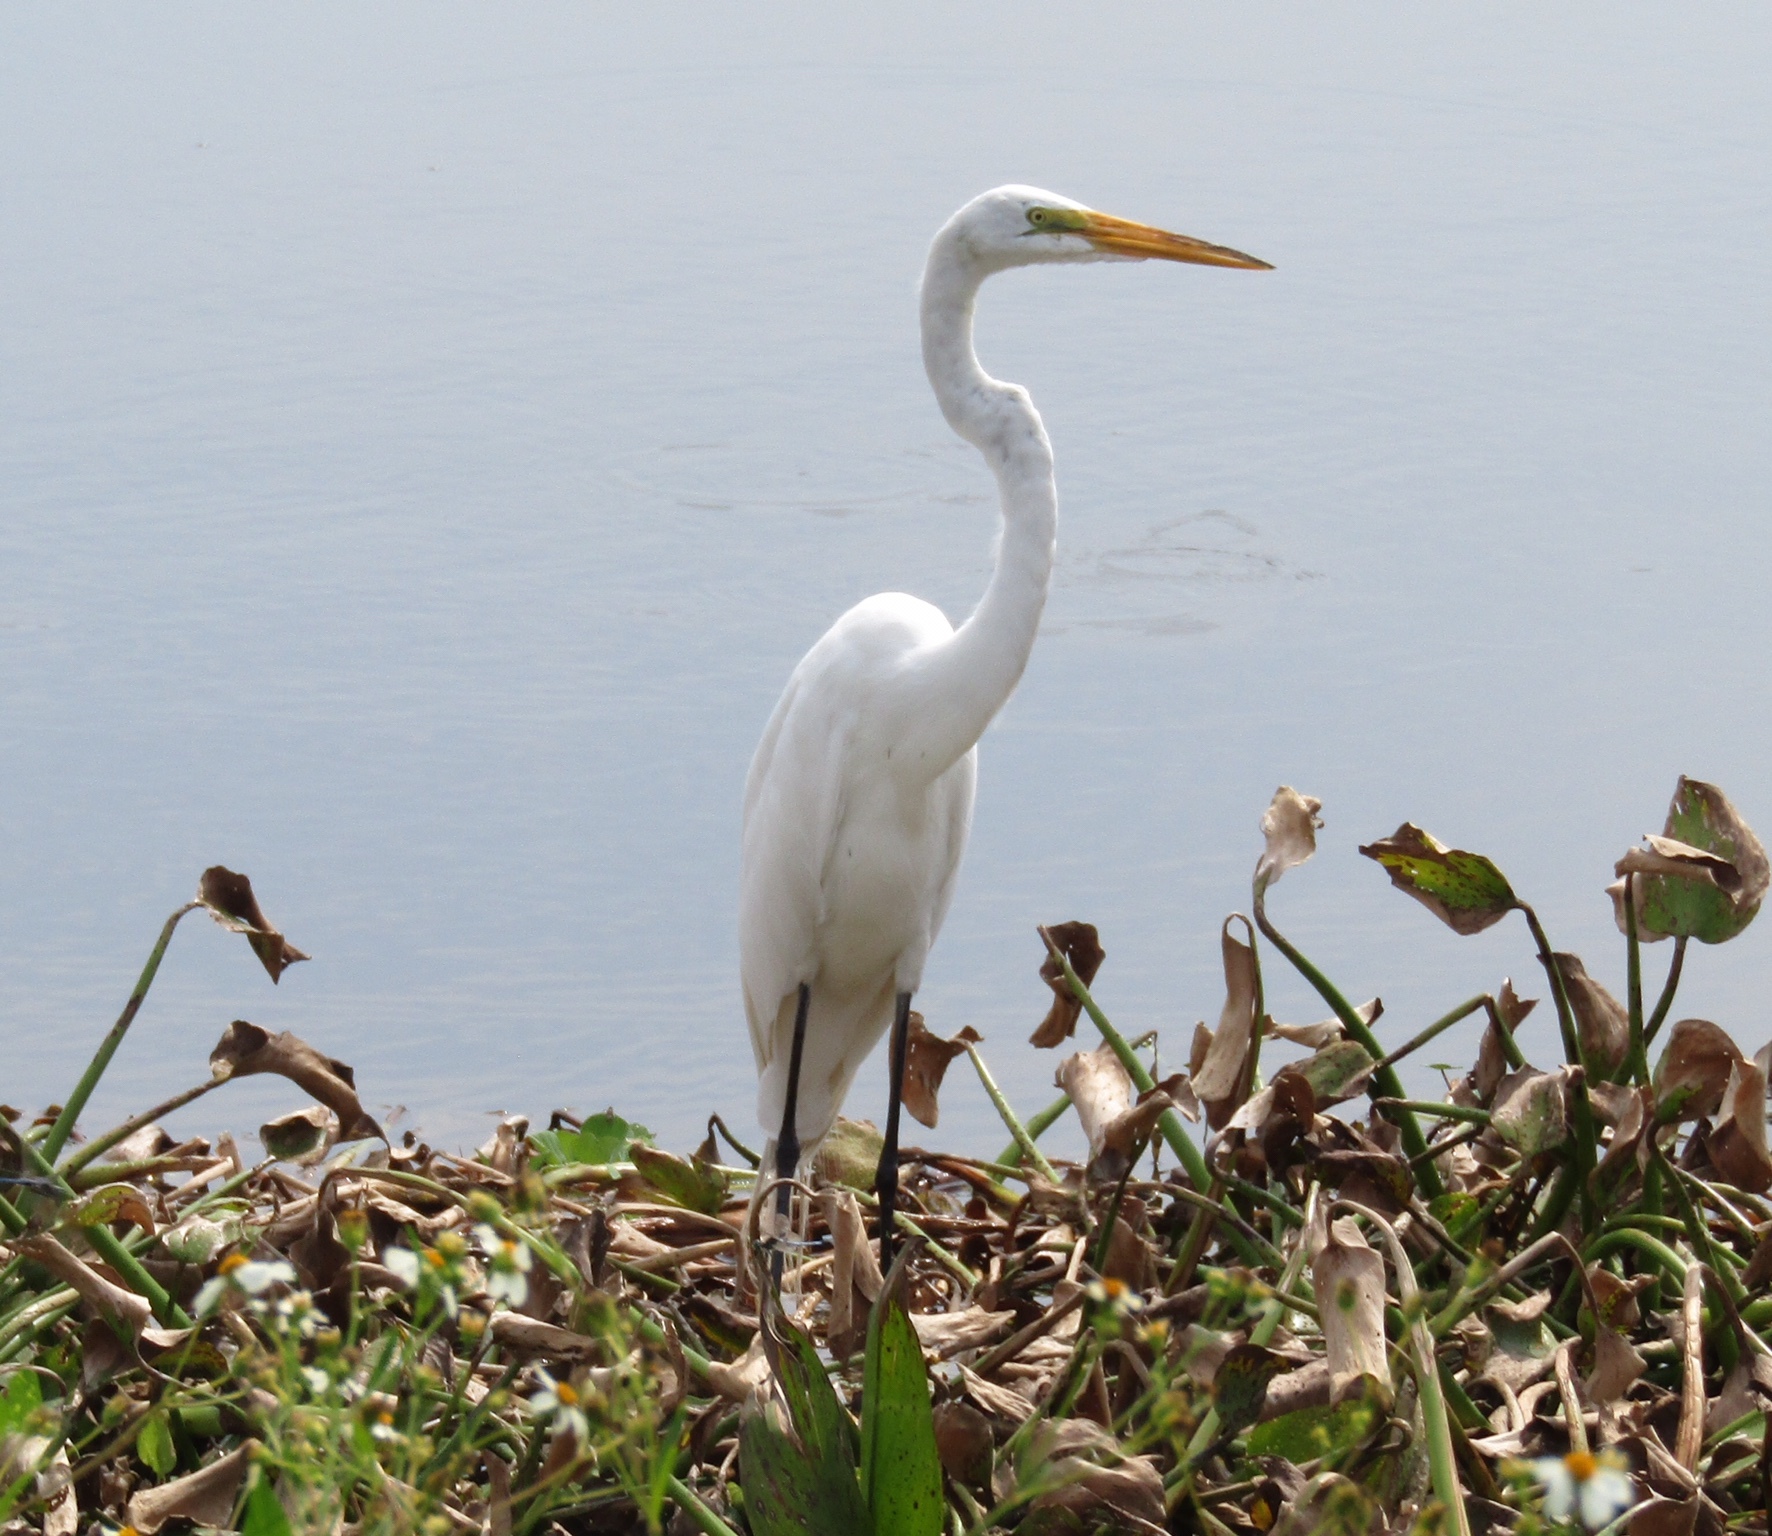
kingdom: Animalia
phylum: Chordata
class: Aves
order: Pelecaniformes
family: Ardeidae
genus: Ardea
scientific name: Ardea alba
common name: Great egret
